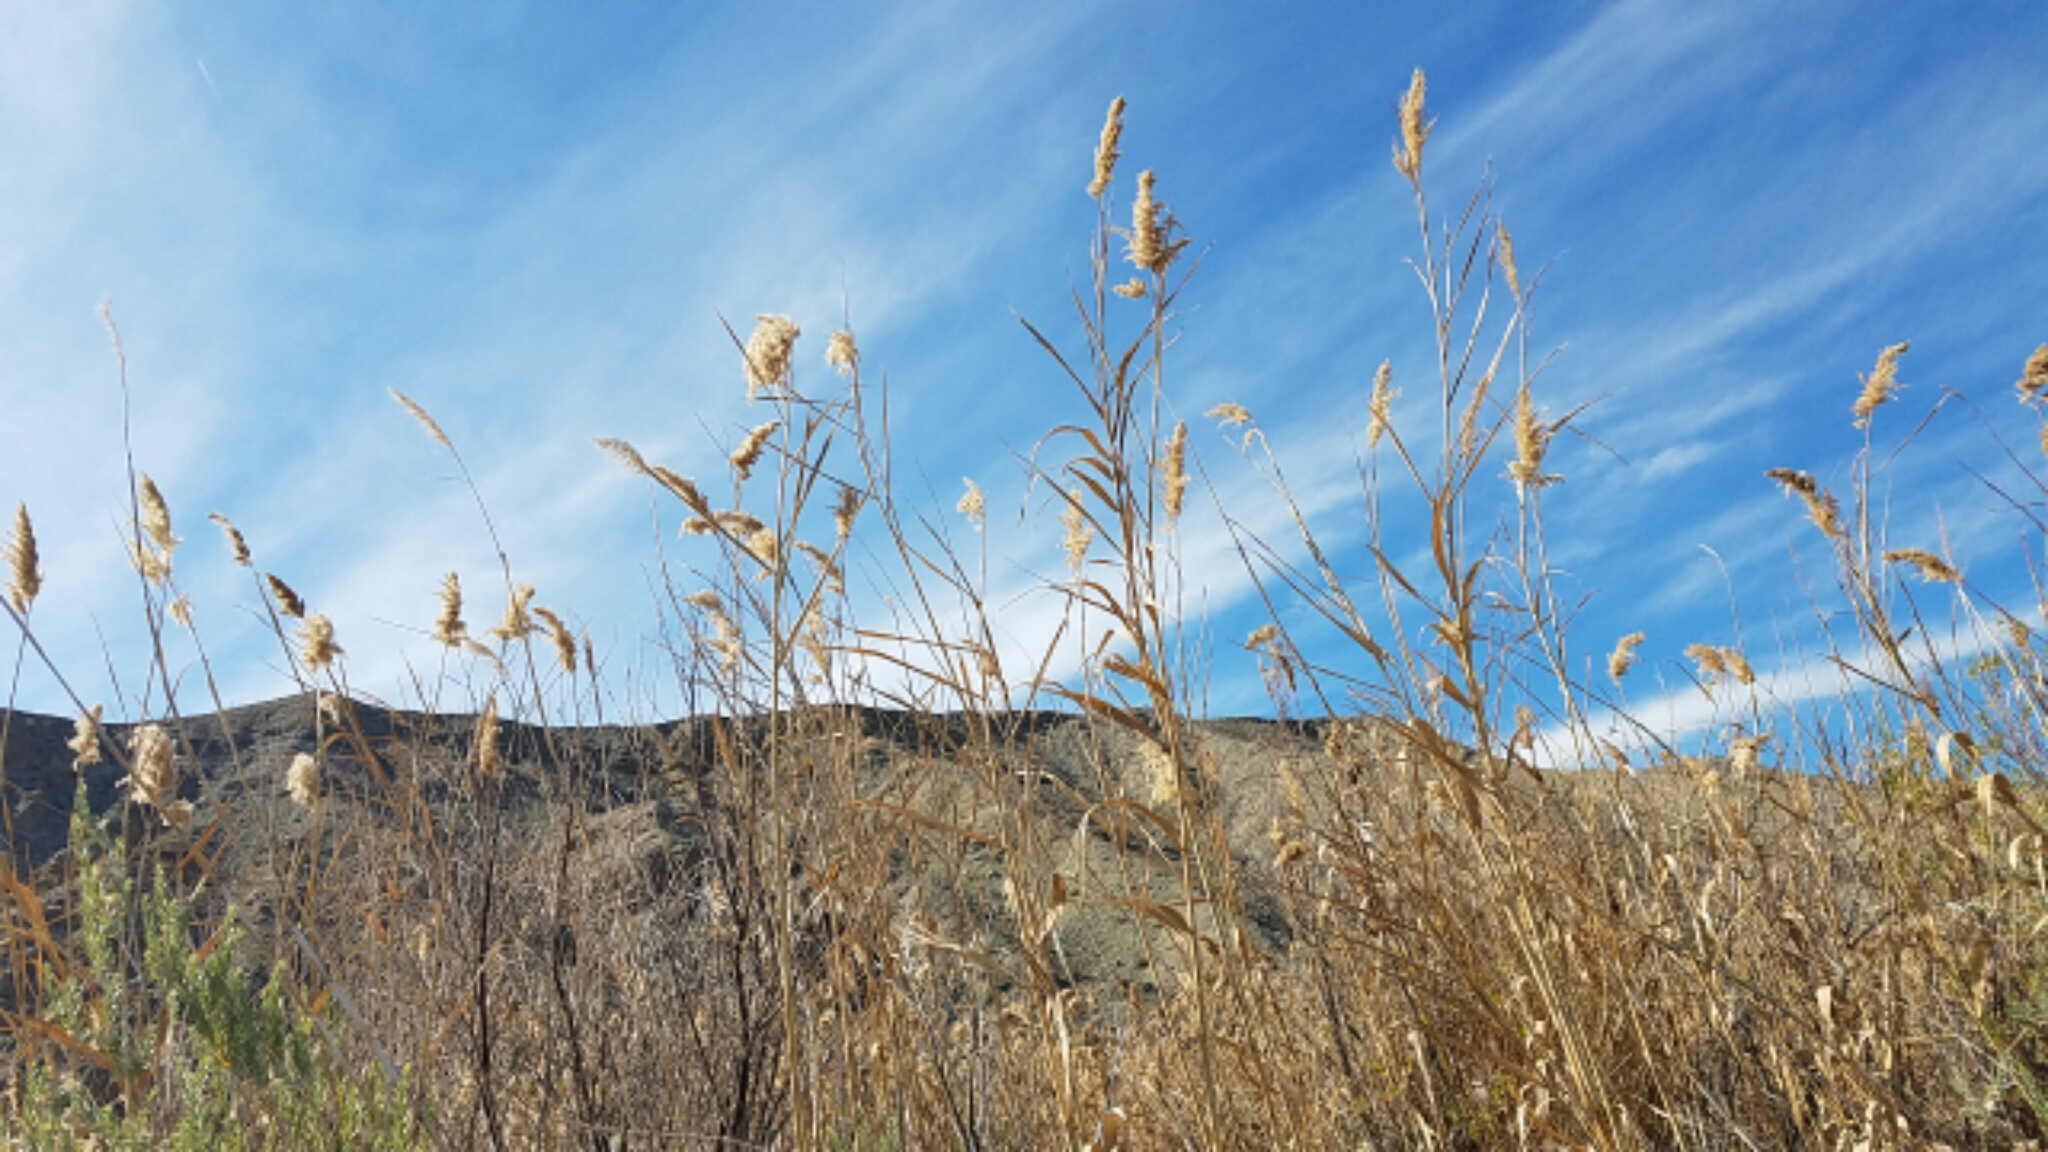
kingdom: Plantae
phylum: Tracheophyta
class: Liliopsida
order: Poales
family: Poaceae
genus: Phragmites
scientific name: Phragmites australis
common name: Common reed
